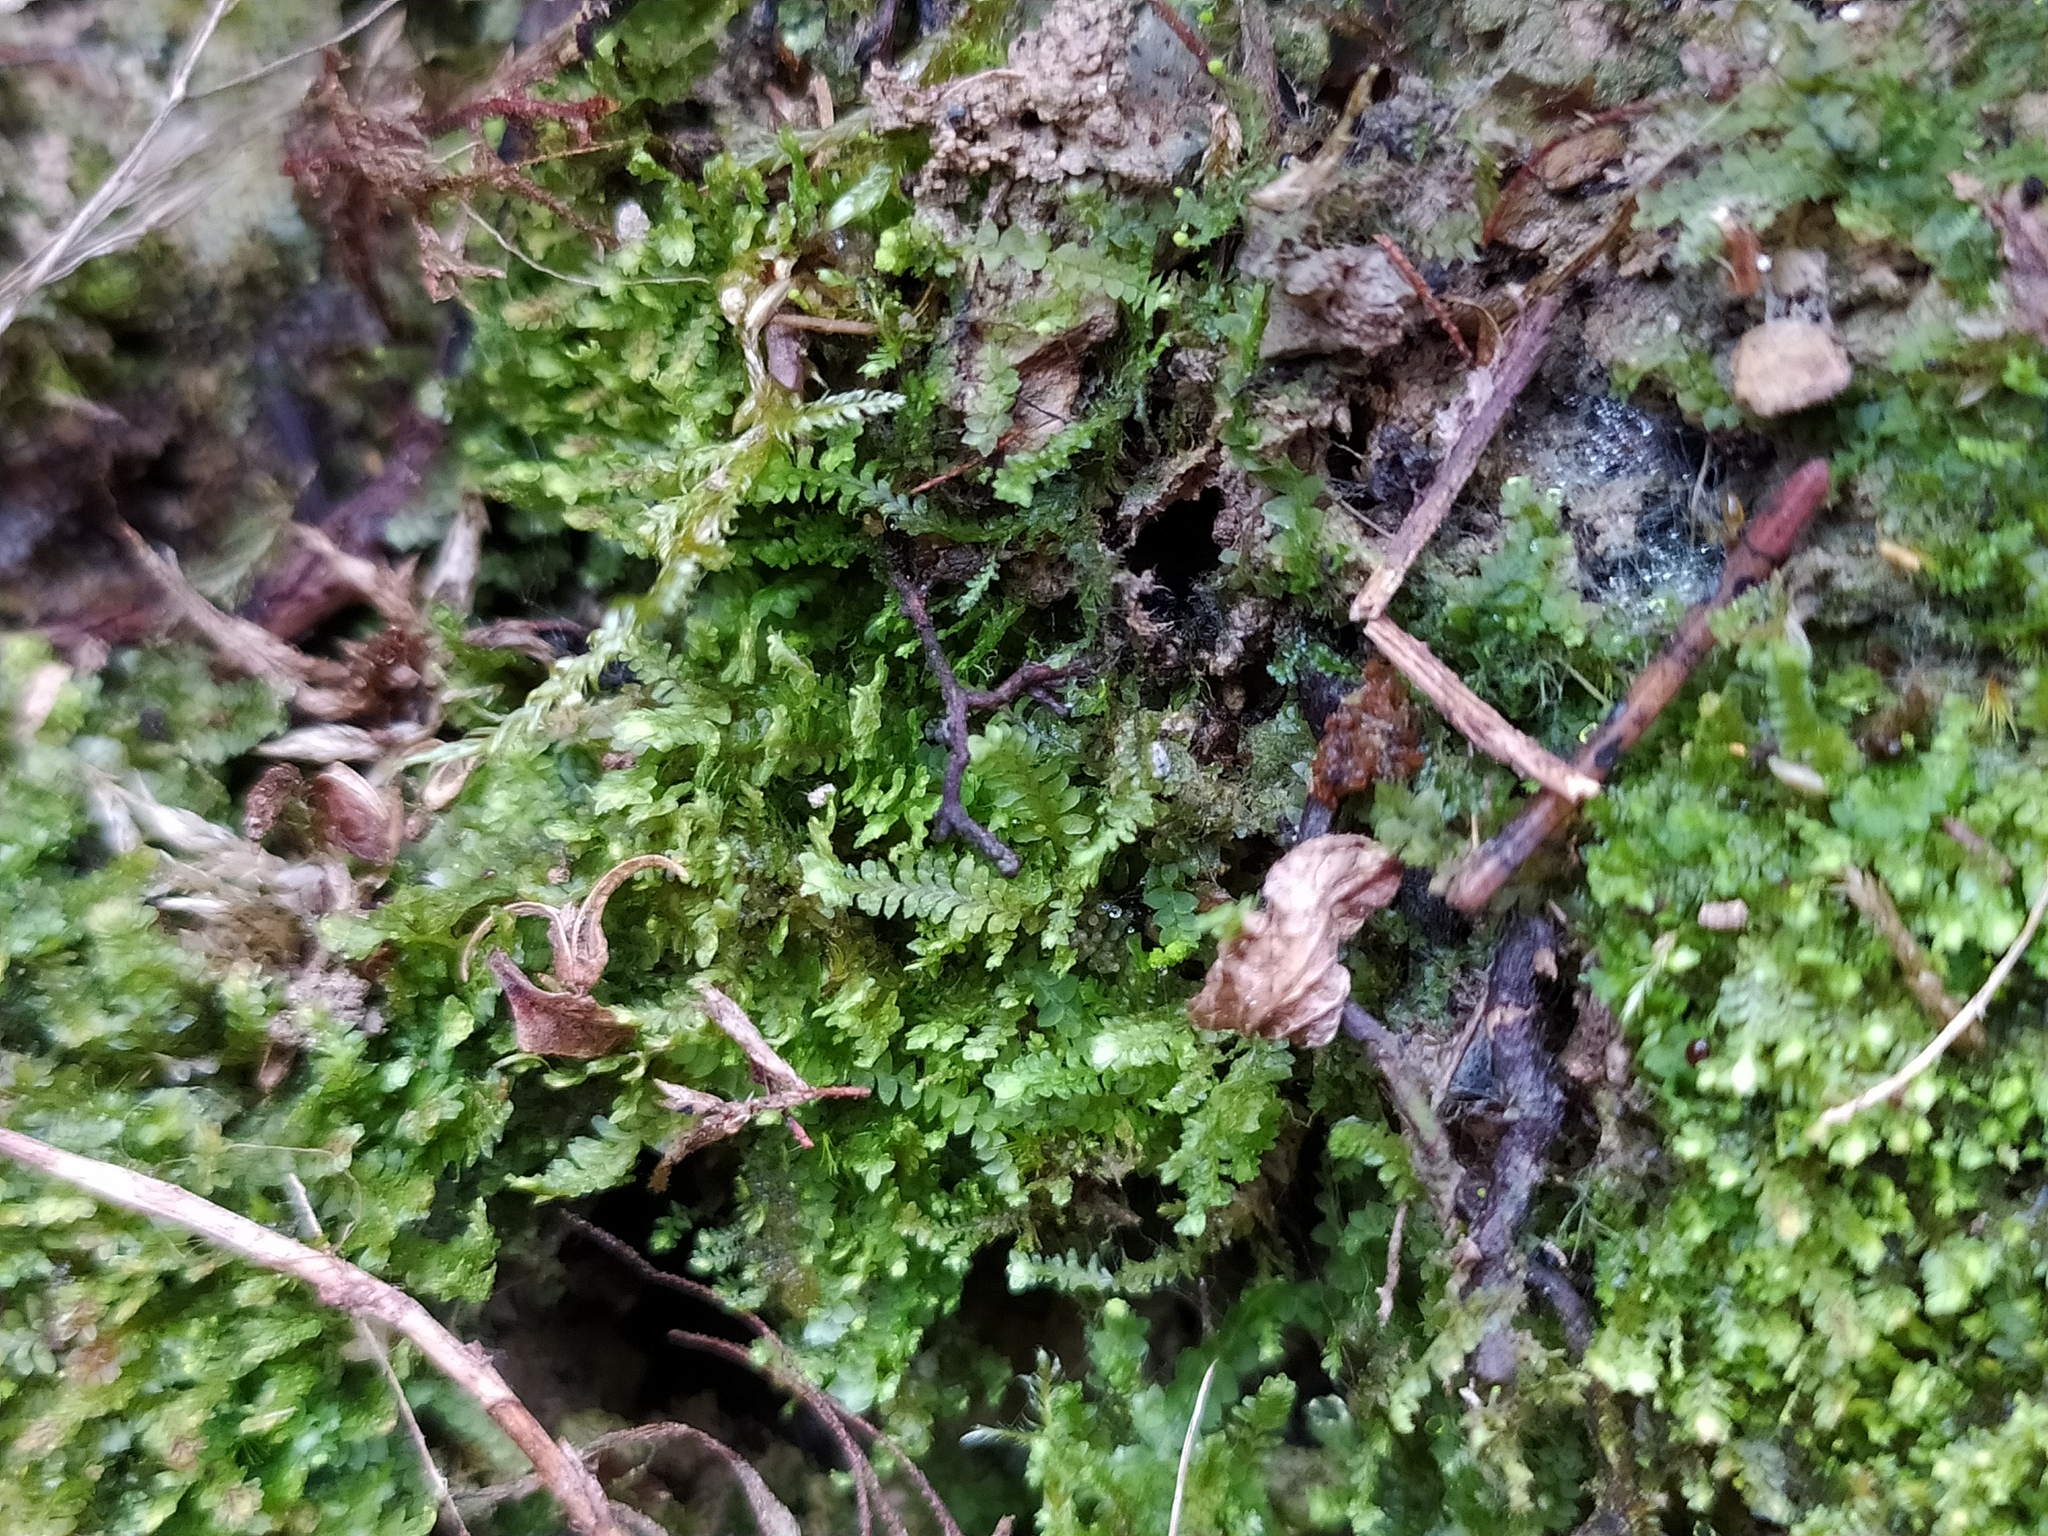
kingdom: Plantae
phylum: Marchantiophyta
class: Jungermanniopsida
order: Jungermanniales
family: Scapaniaceae
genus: Diplophyllum
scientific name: Diplophyllum albicans
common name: White earwort
